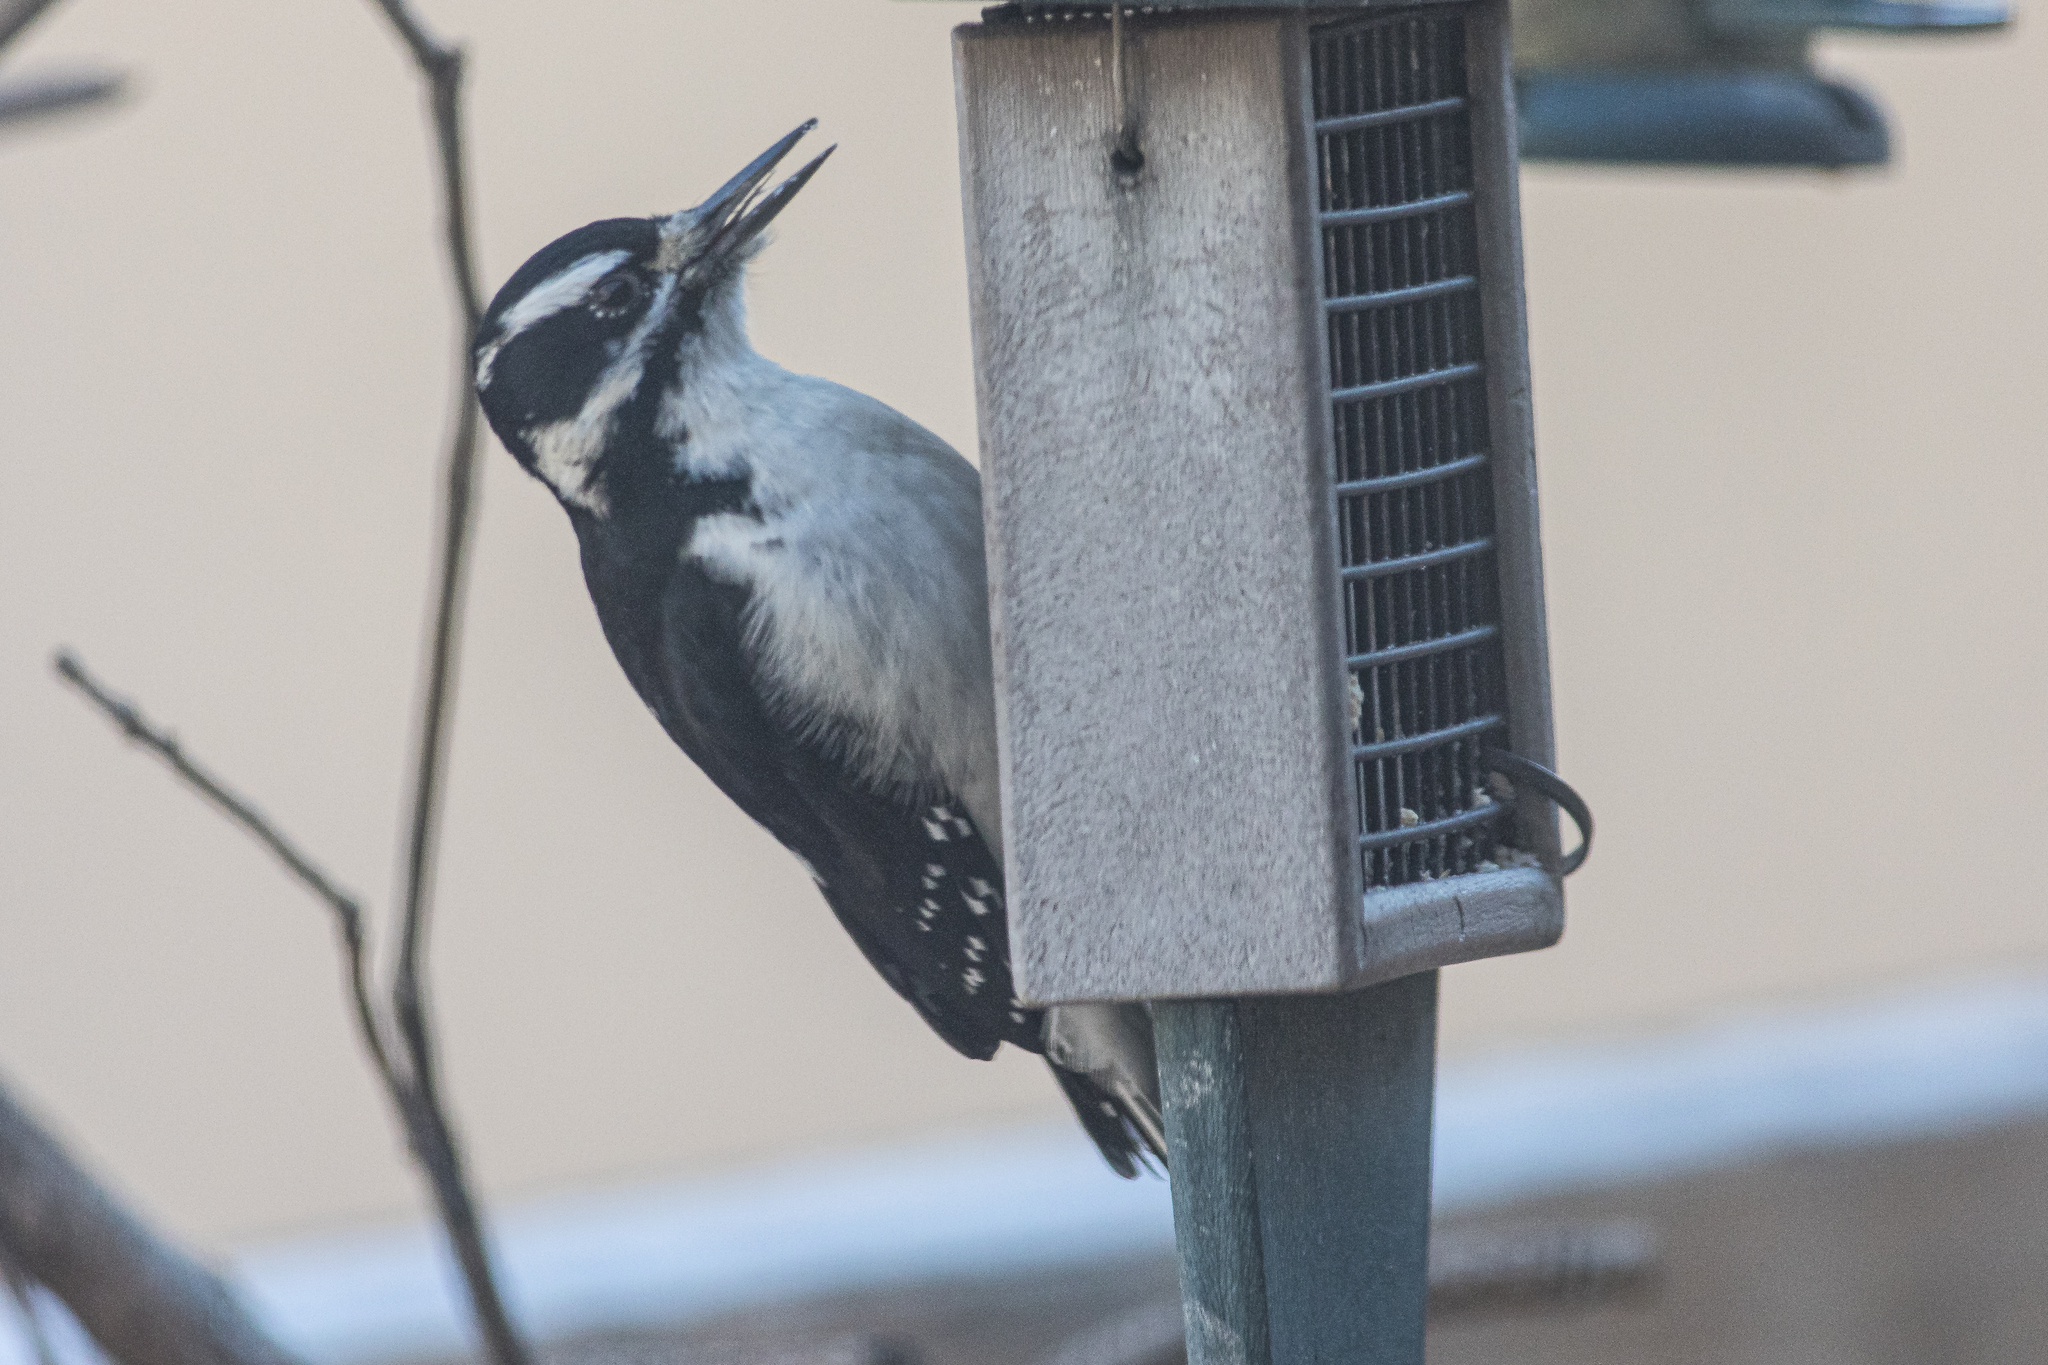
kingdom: Animalia
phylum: Chordata
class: Aves
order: Piciformes
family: Picidae
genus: Leuconotopicus
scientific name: Leuconotopicus villosus
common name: Hairy woodpecker
